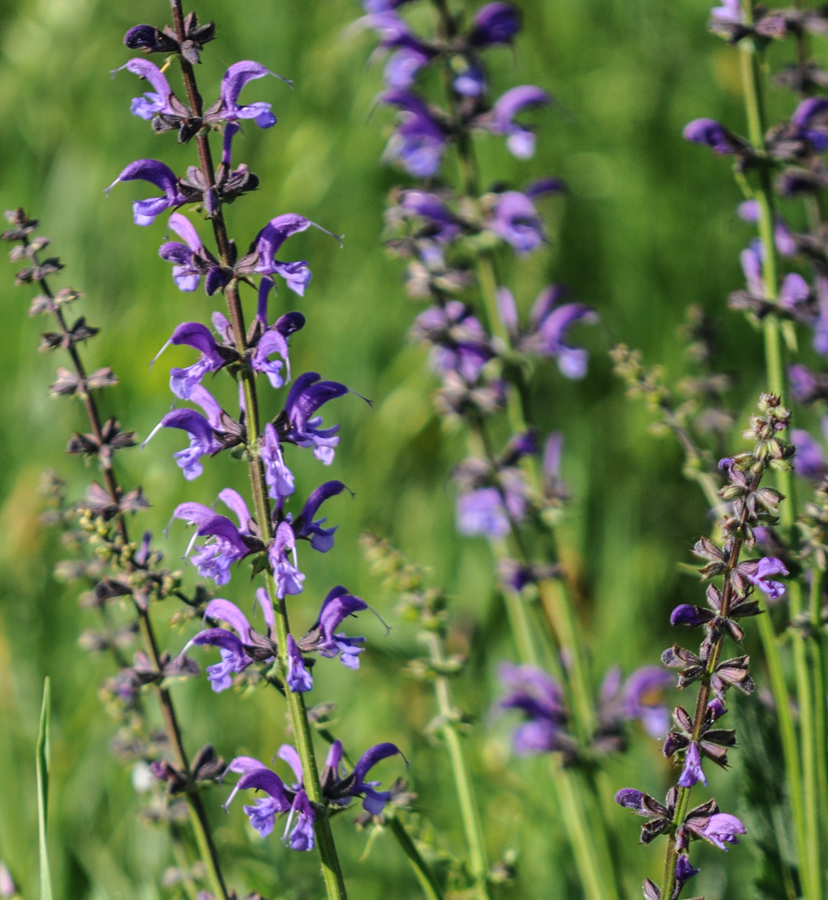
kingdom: Plantae
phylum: Tracheophyta
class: Magnoliopsida
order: Lamiales
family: Lamiaceae
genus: Salvia
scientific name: Salvia pratensis
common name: Meadow sage
